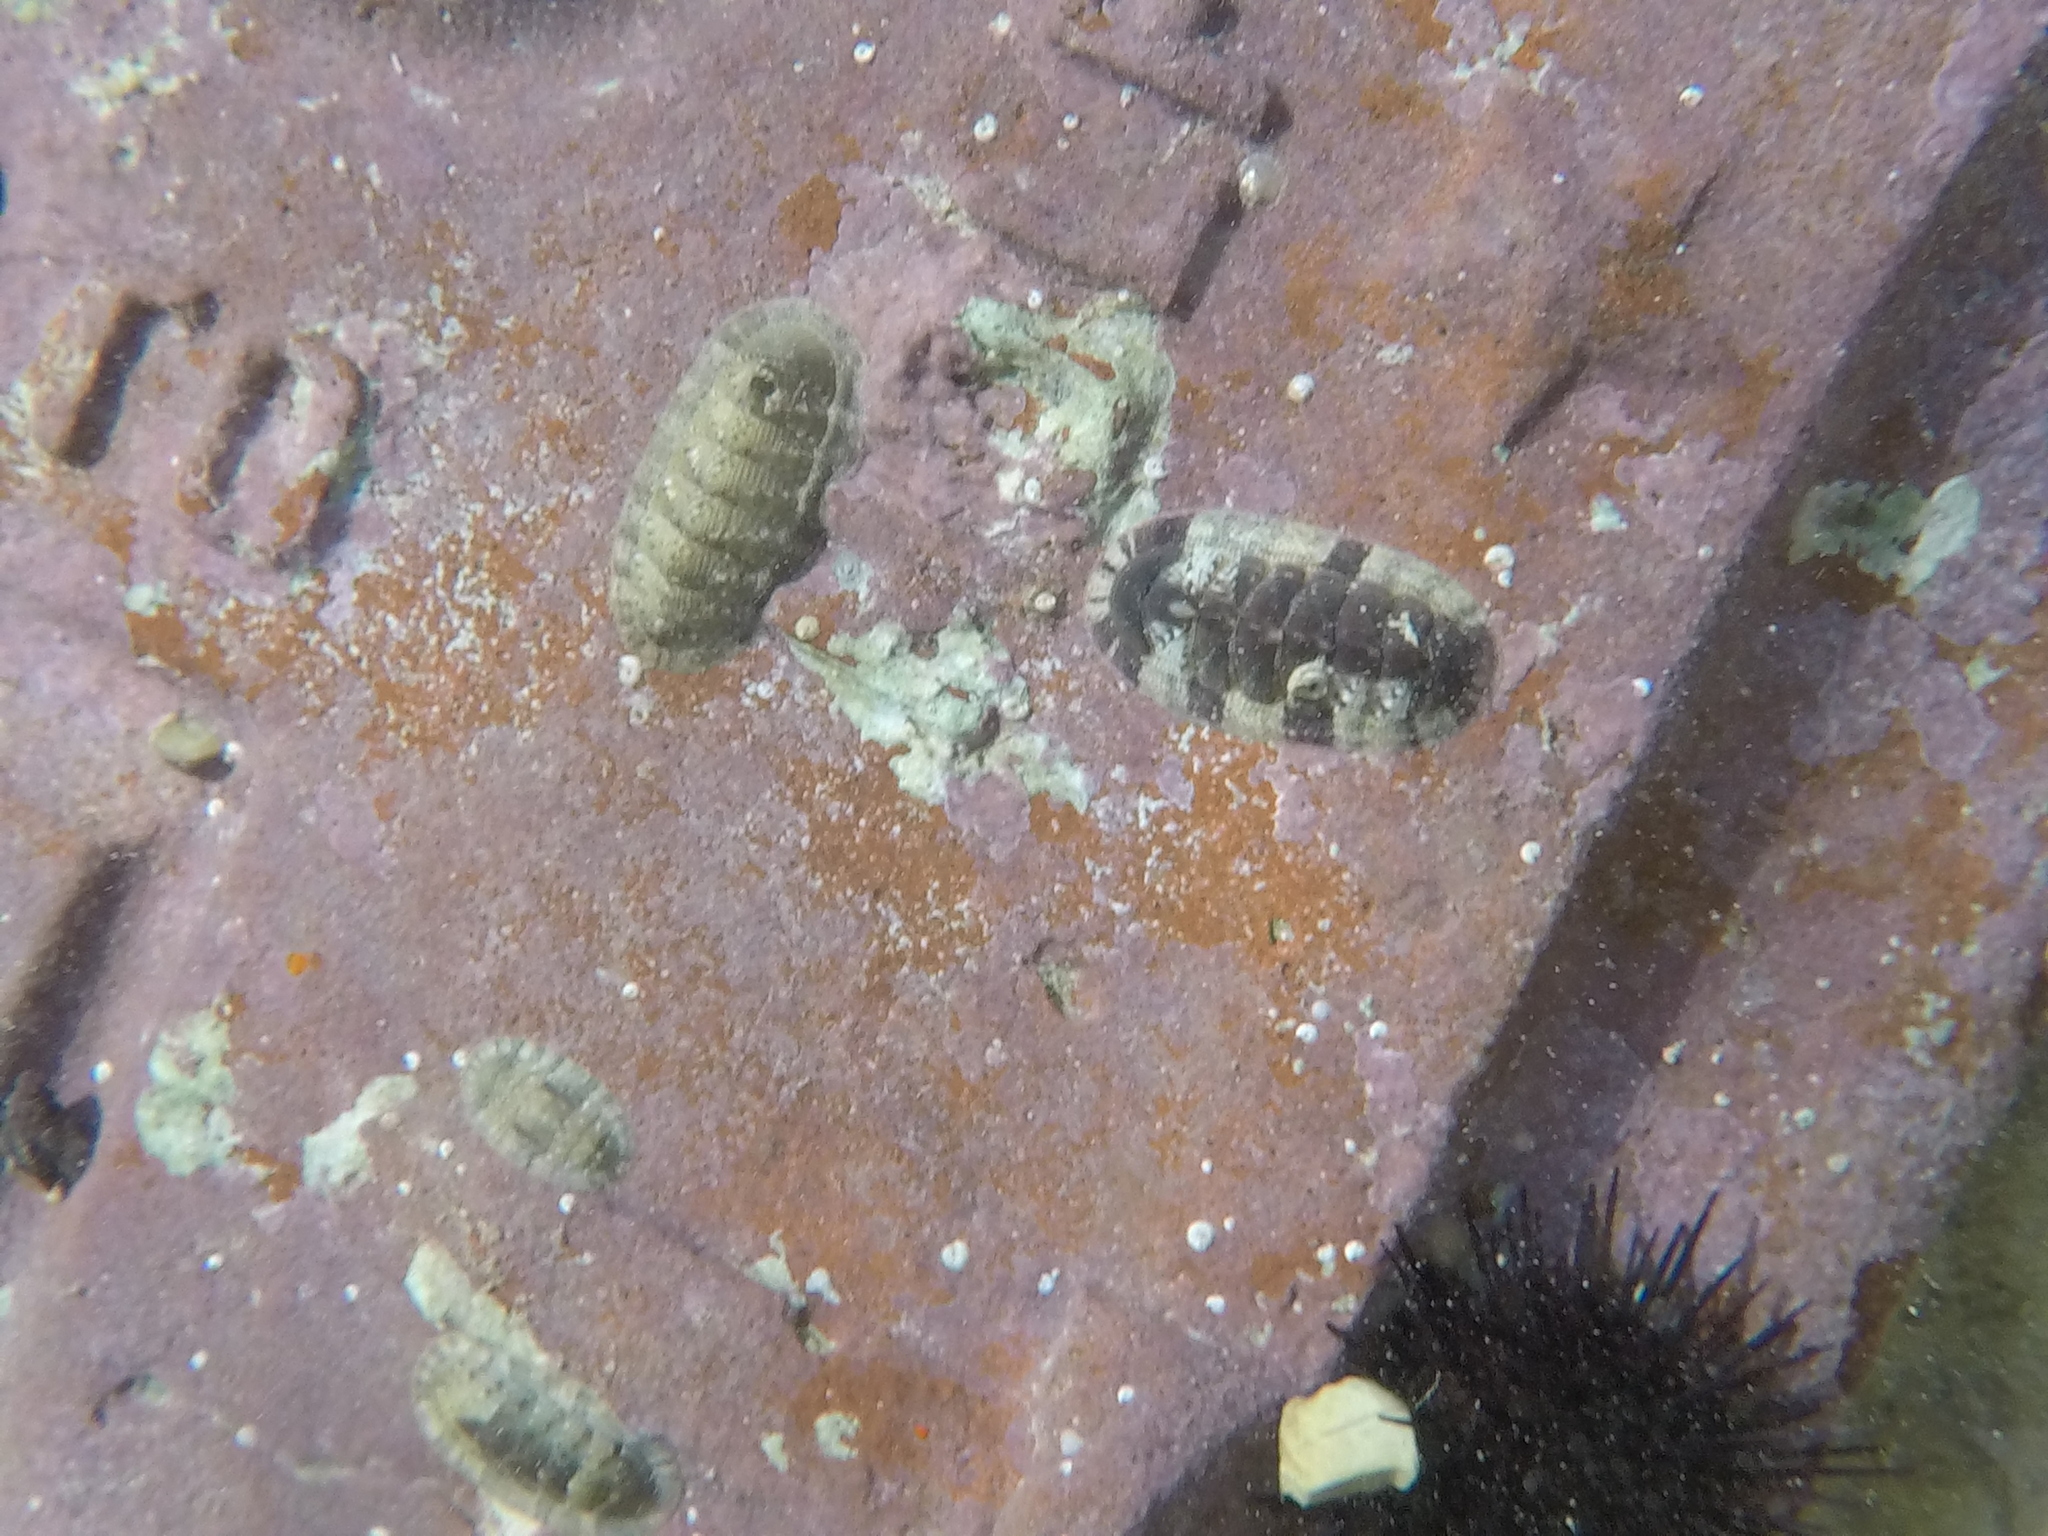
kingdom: Animalia
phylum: Mollusca
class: Polyplacophora
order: Chitonida
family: Chitonidae
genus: Rhyssoplax
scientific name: Rhyssoplax olivacea
